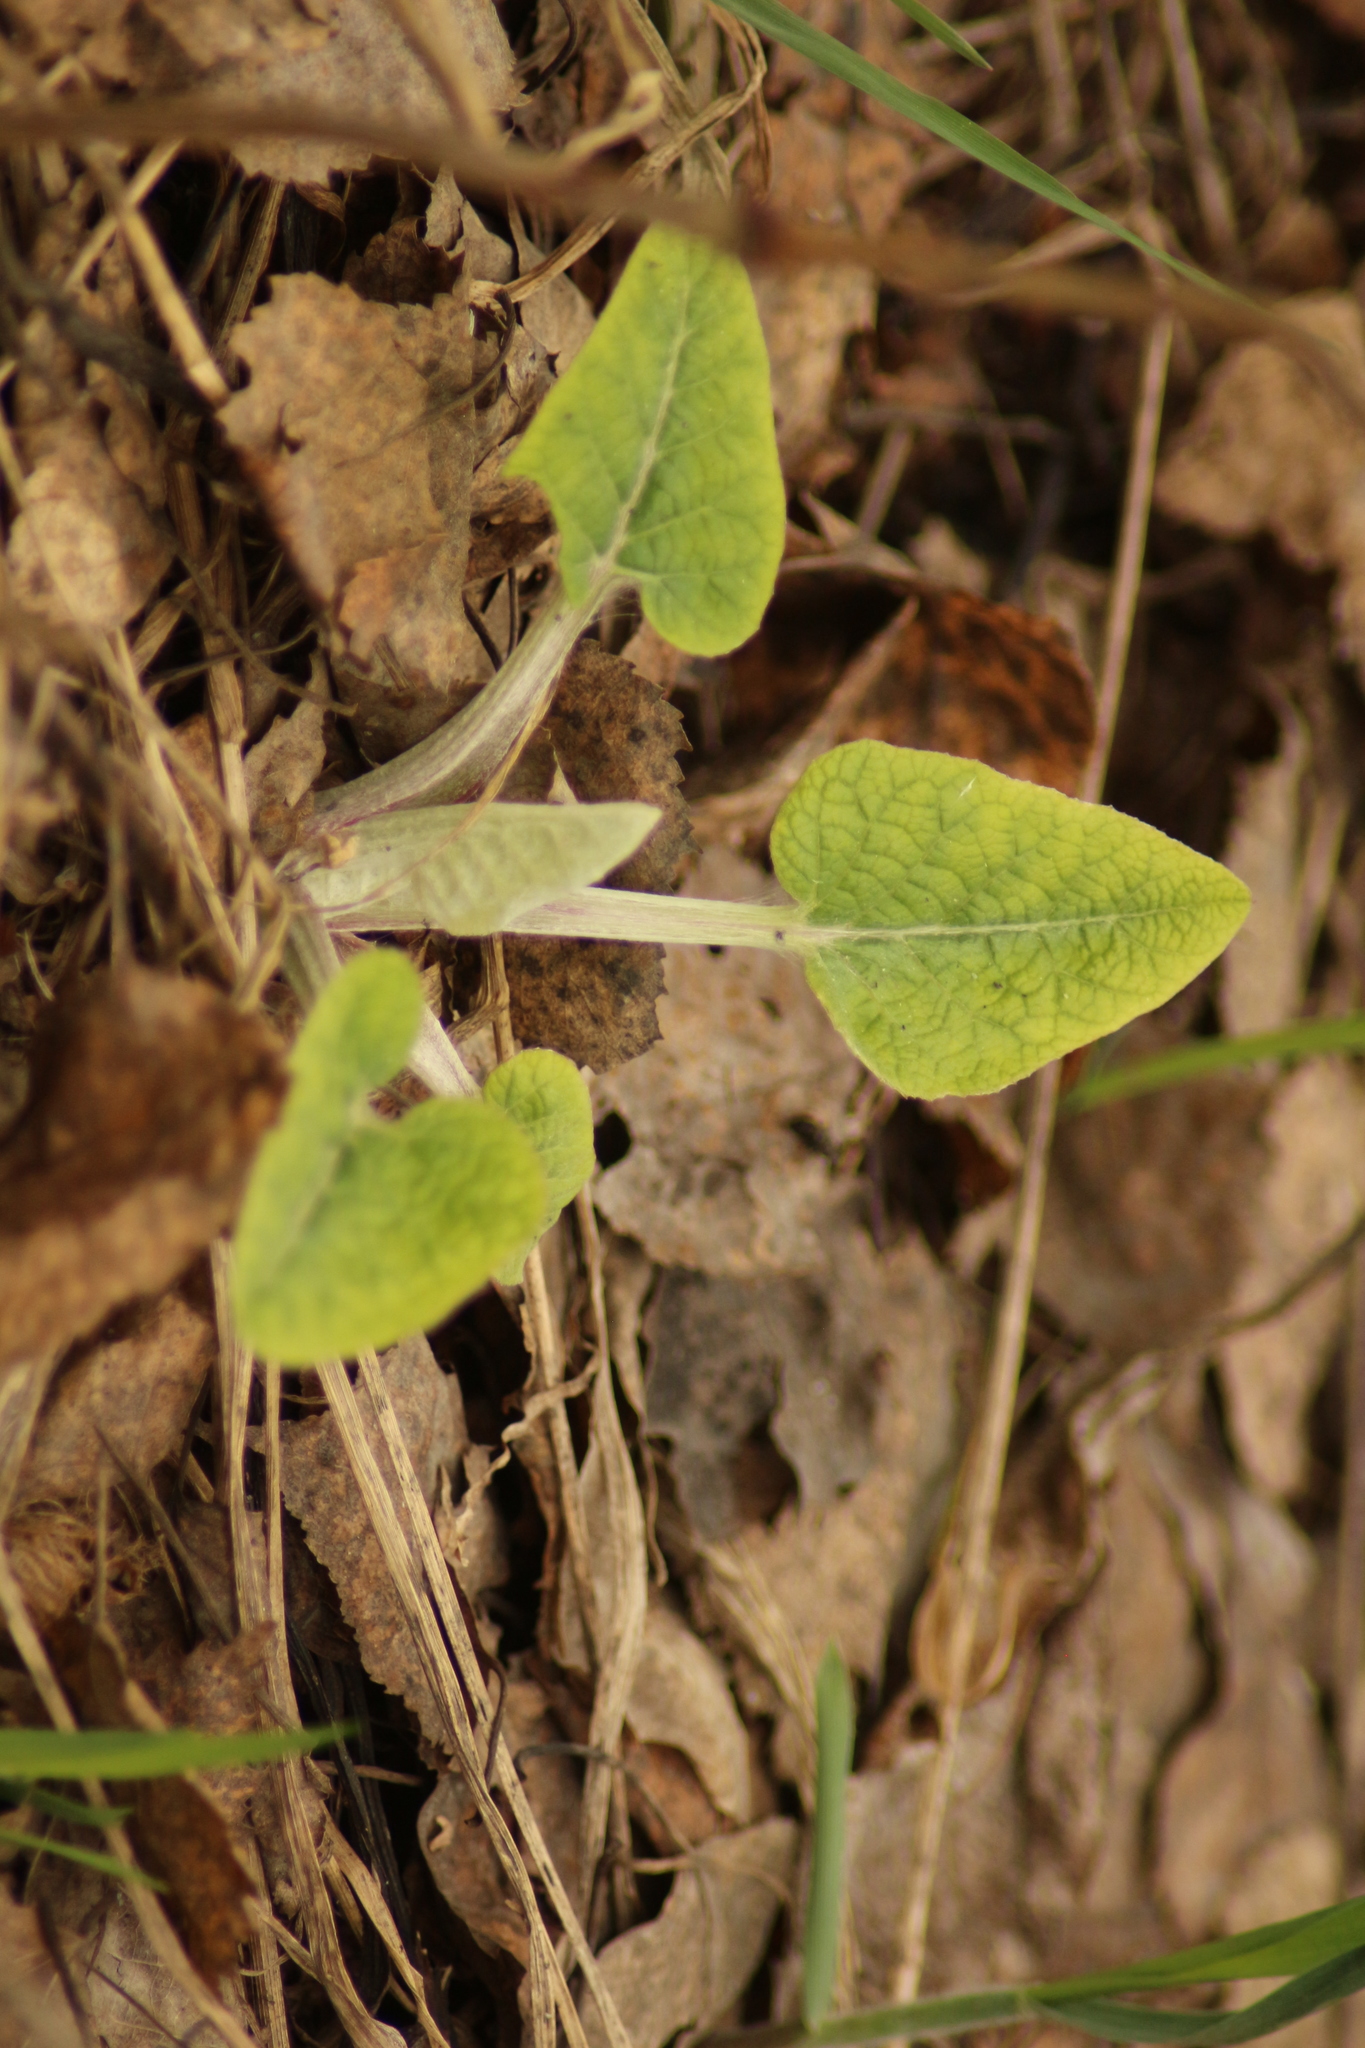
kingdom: Plantae
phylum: Tracheophyta
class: Magnoliopsida
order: Asterales
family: Asteraceae
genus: Arctium
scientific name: Arctium
